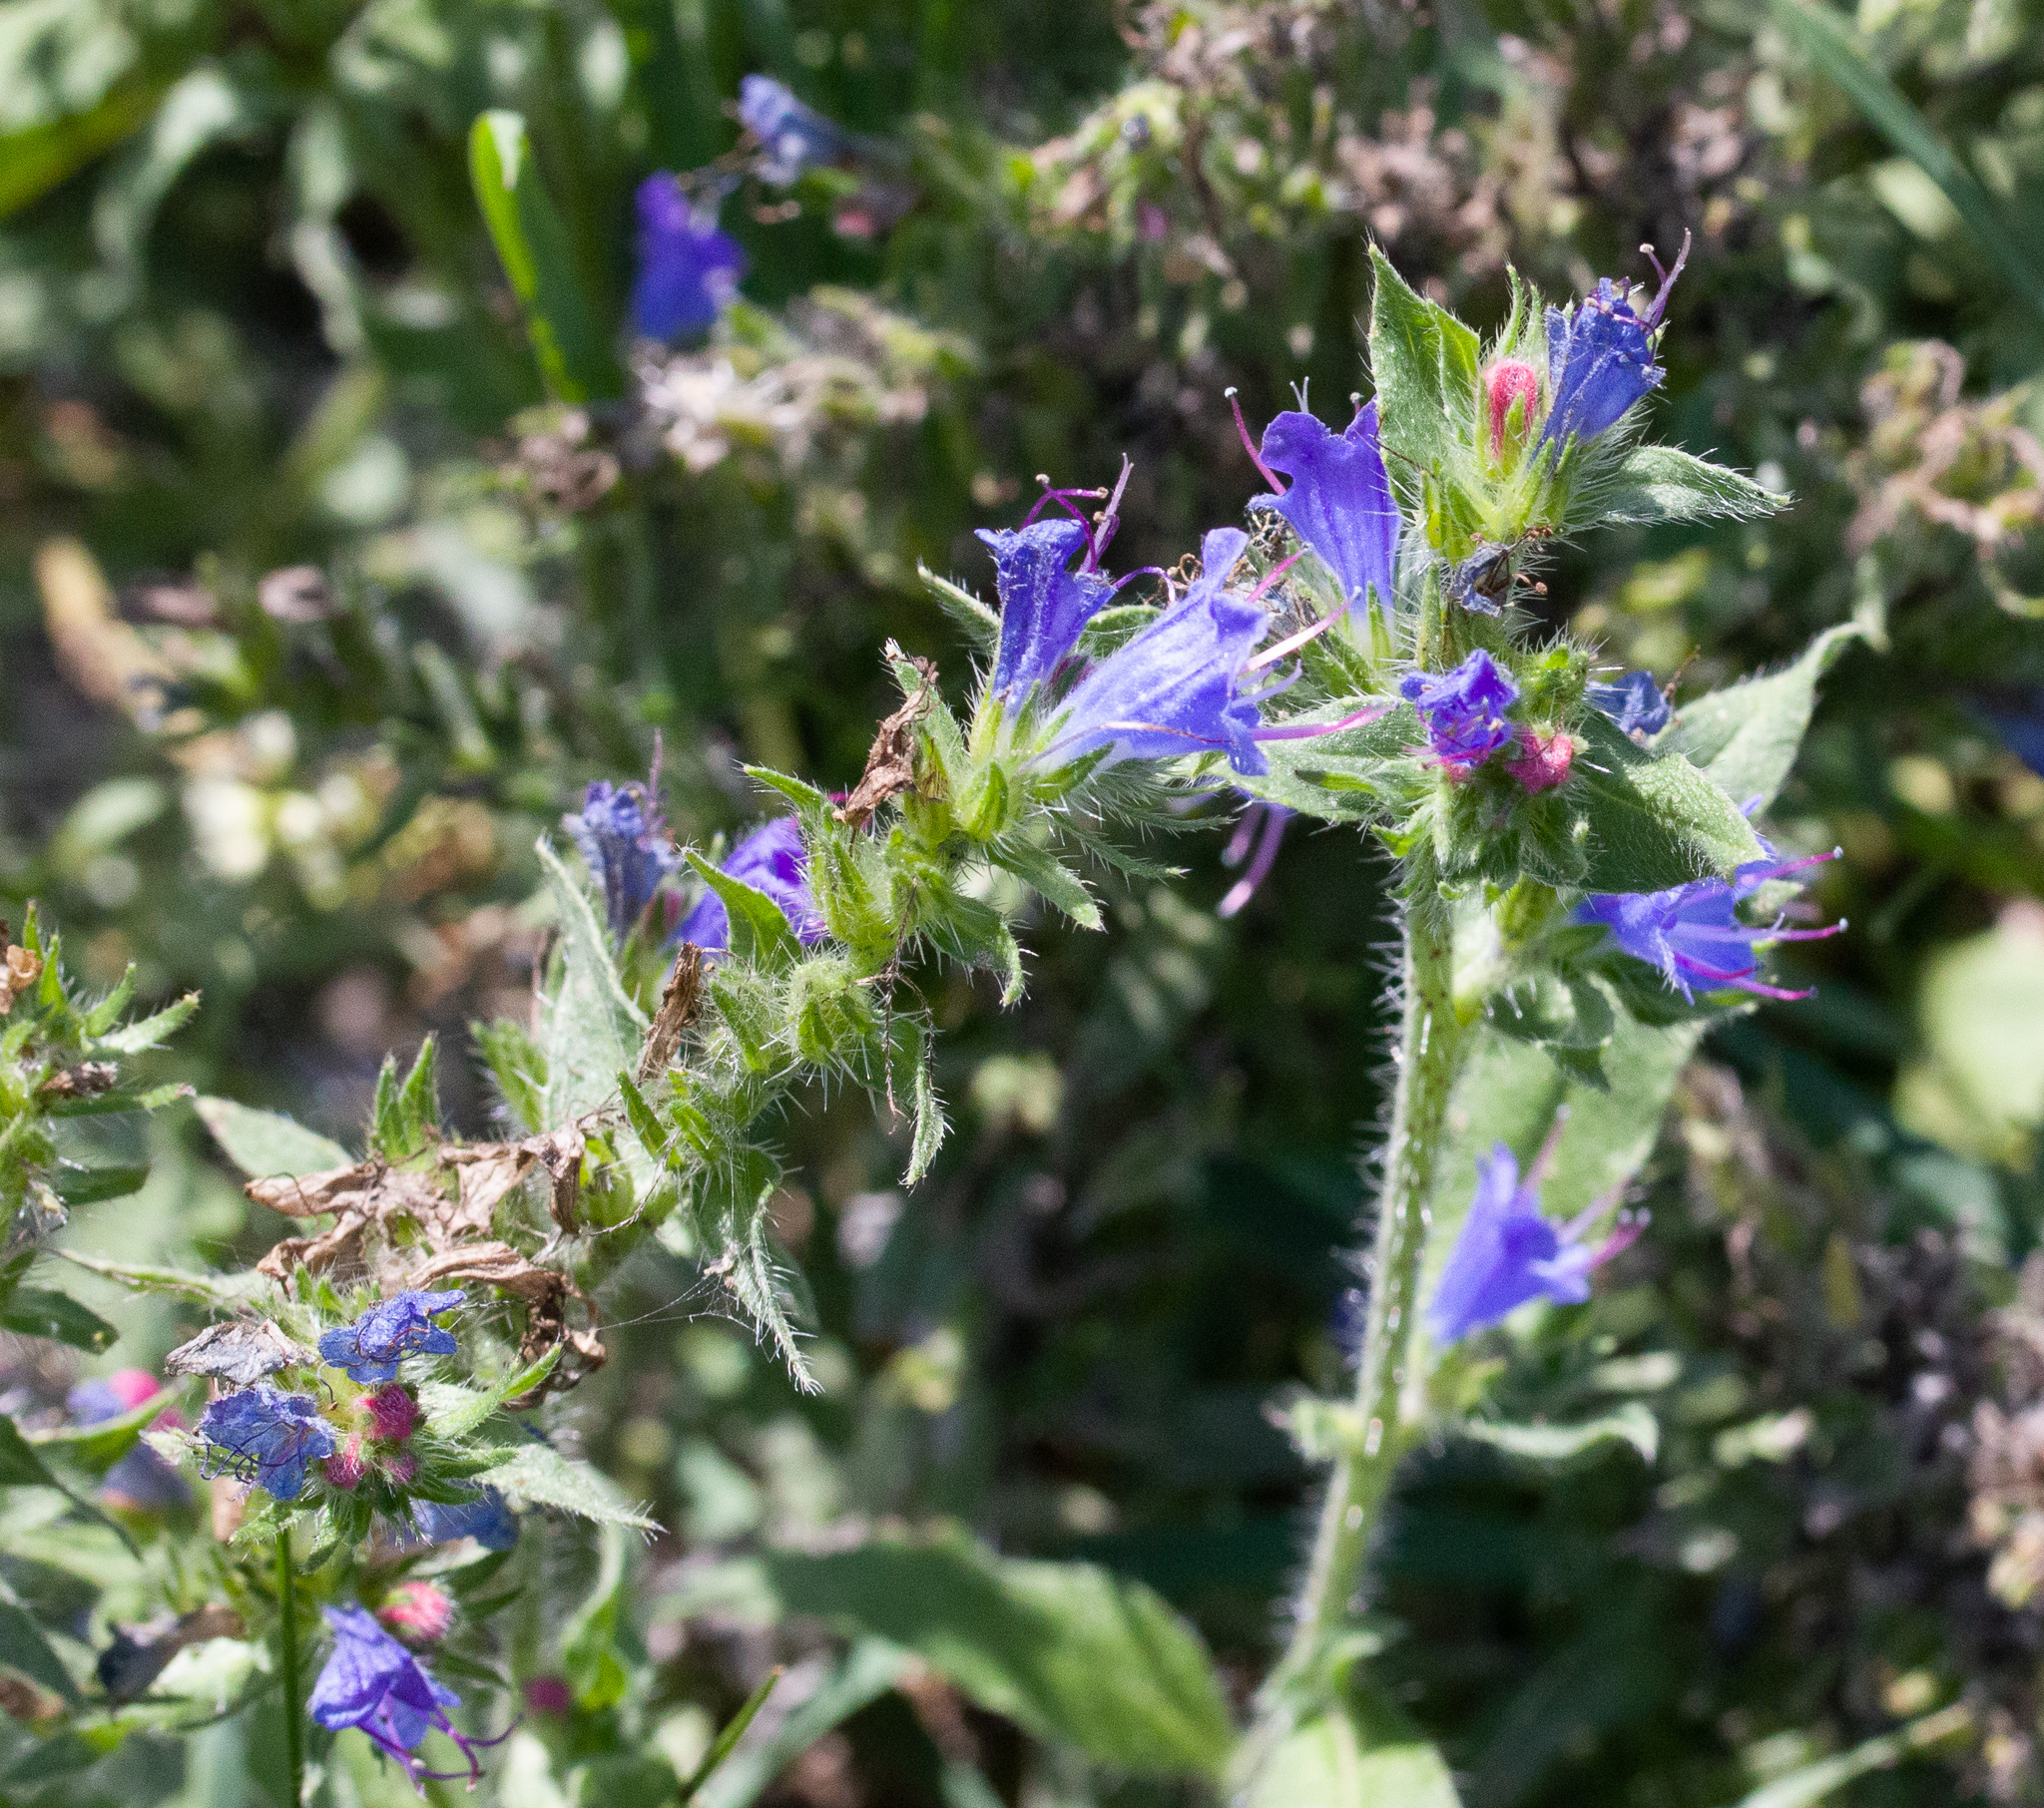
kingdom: Plantae
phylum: Tracheophyta
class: Magnoliopsida
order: Boraginales
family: Boraginaceae
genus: Echium
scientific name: Echium vulgare
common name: Common viper's bugloss
